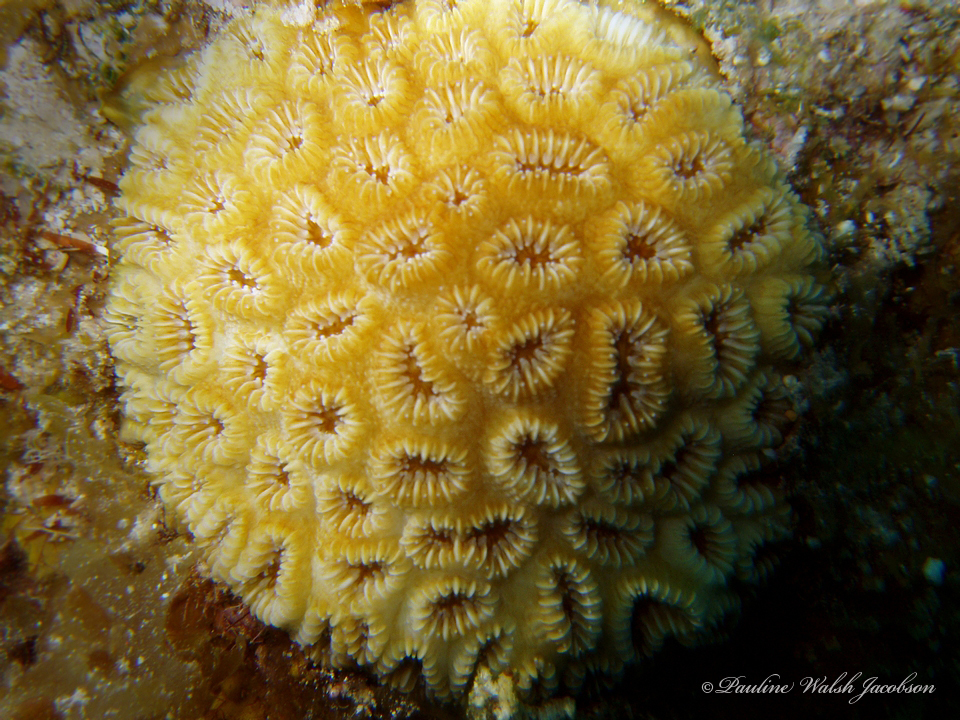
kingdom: Animalia
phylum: Cnidaria
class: Anthozoa
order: Scleractinia
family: Meandrinidae
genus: Dichocoenia
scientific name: Dichocoenia stokesii
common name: Pineapple coral
